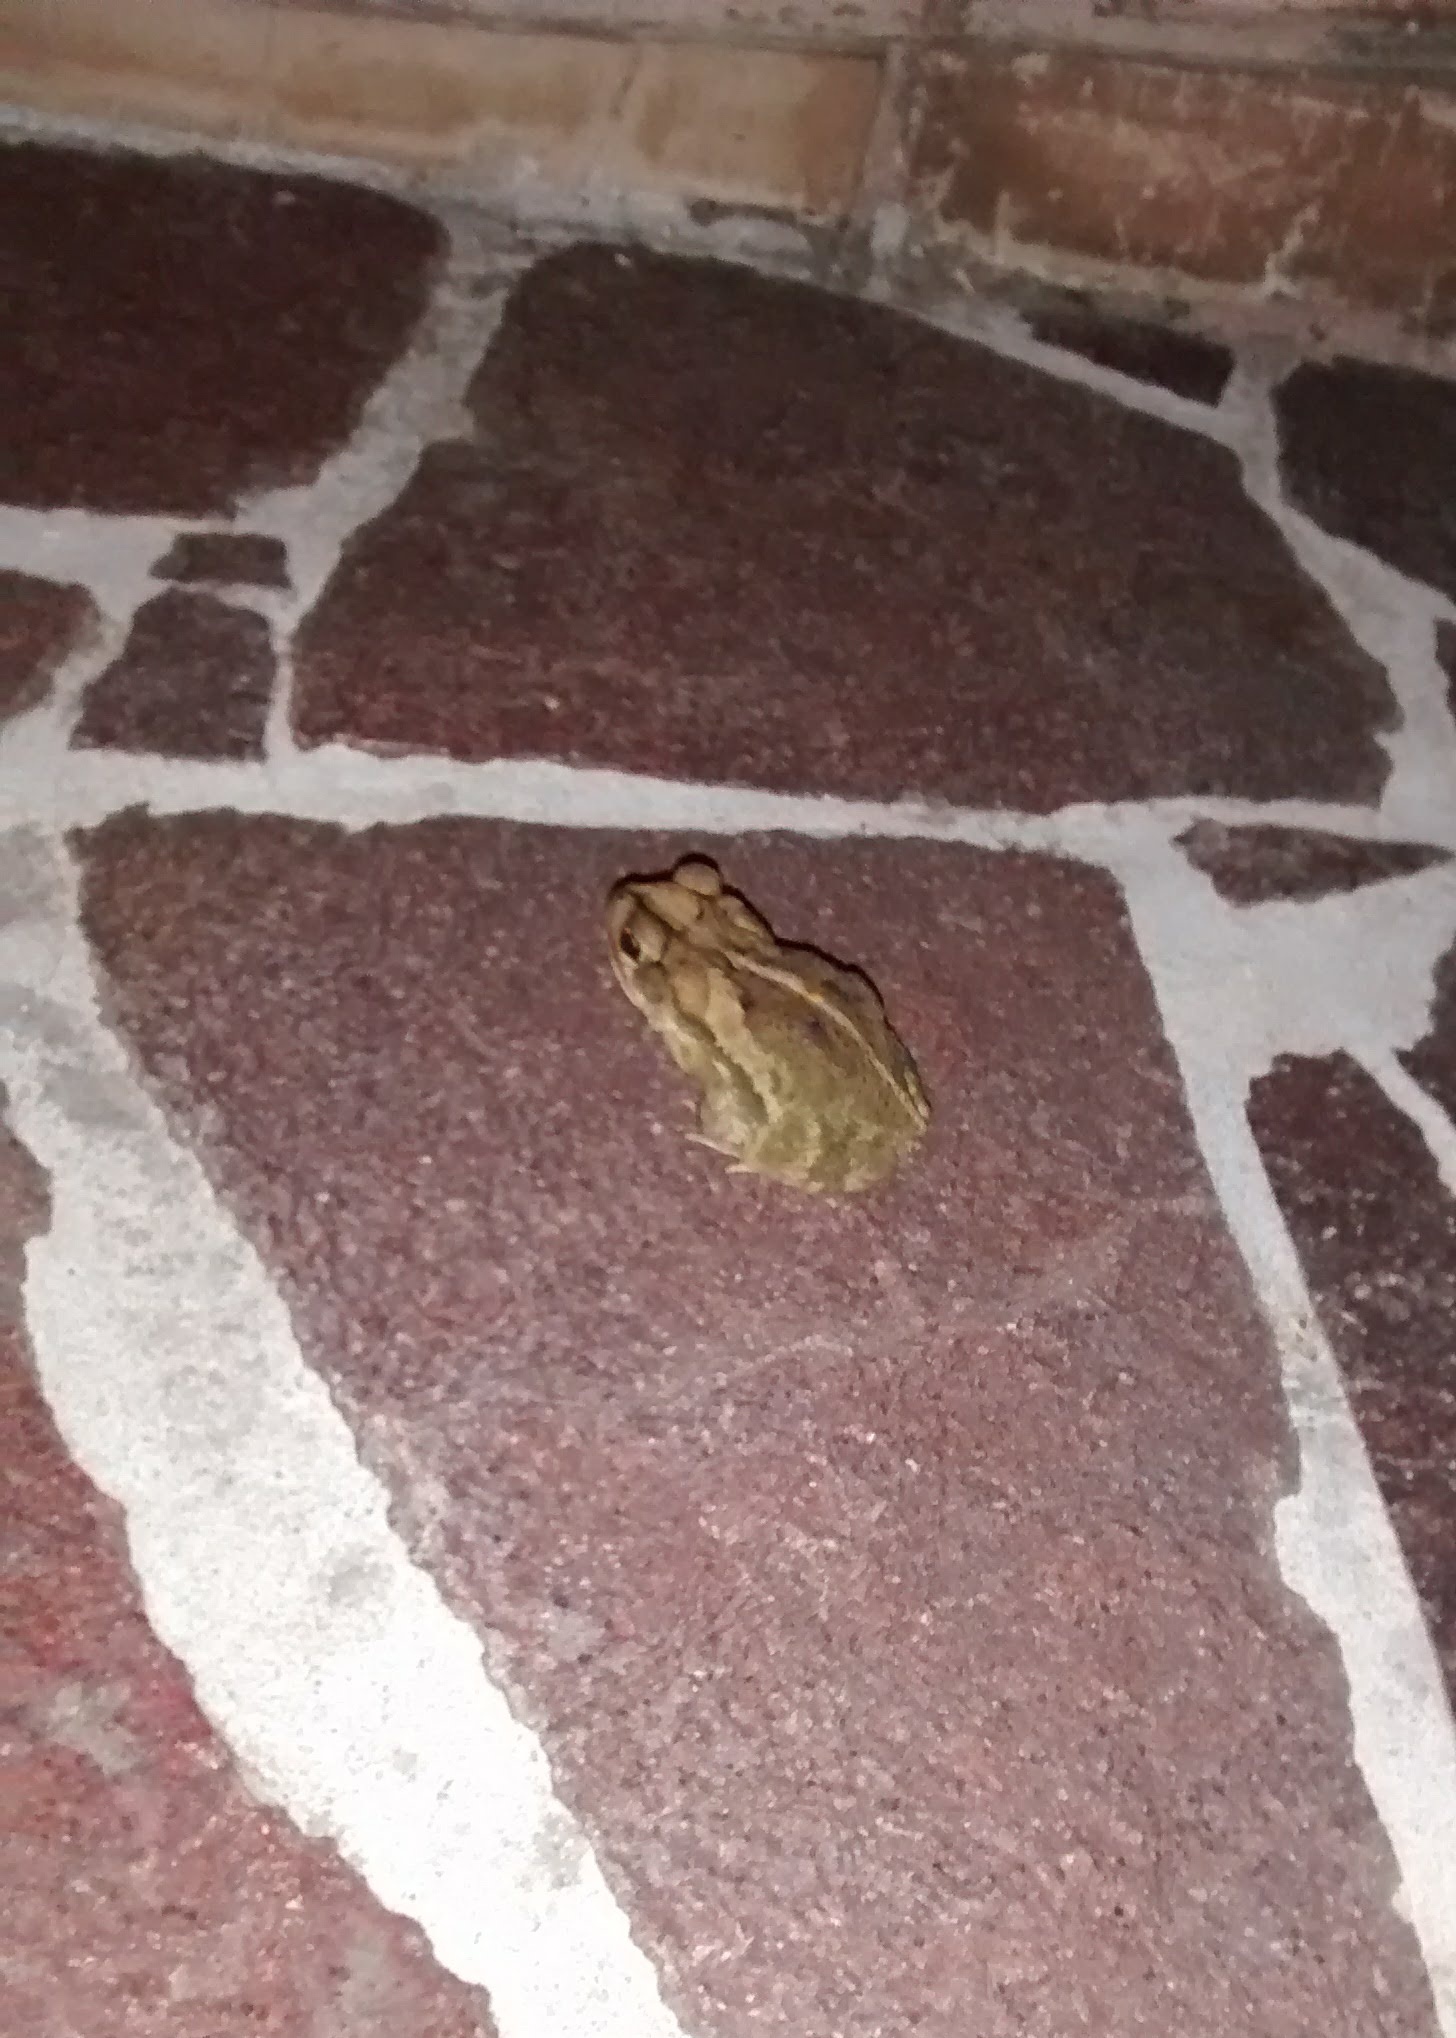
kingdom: Animalia
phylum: Chordata
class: Amphibia
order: Anura
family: Bufonidae
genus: Incilius
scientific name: Incilius nebulifer
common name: Gulf coast toad
